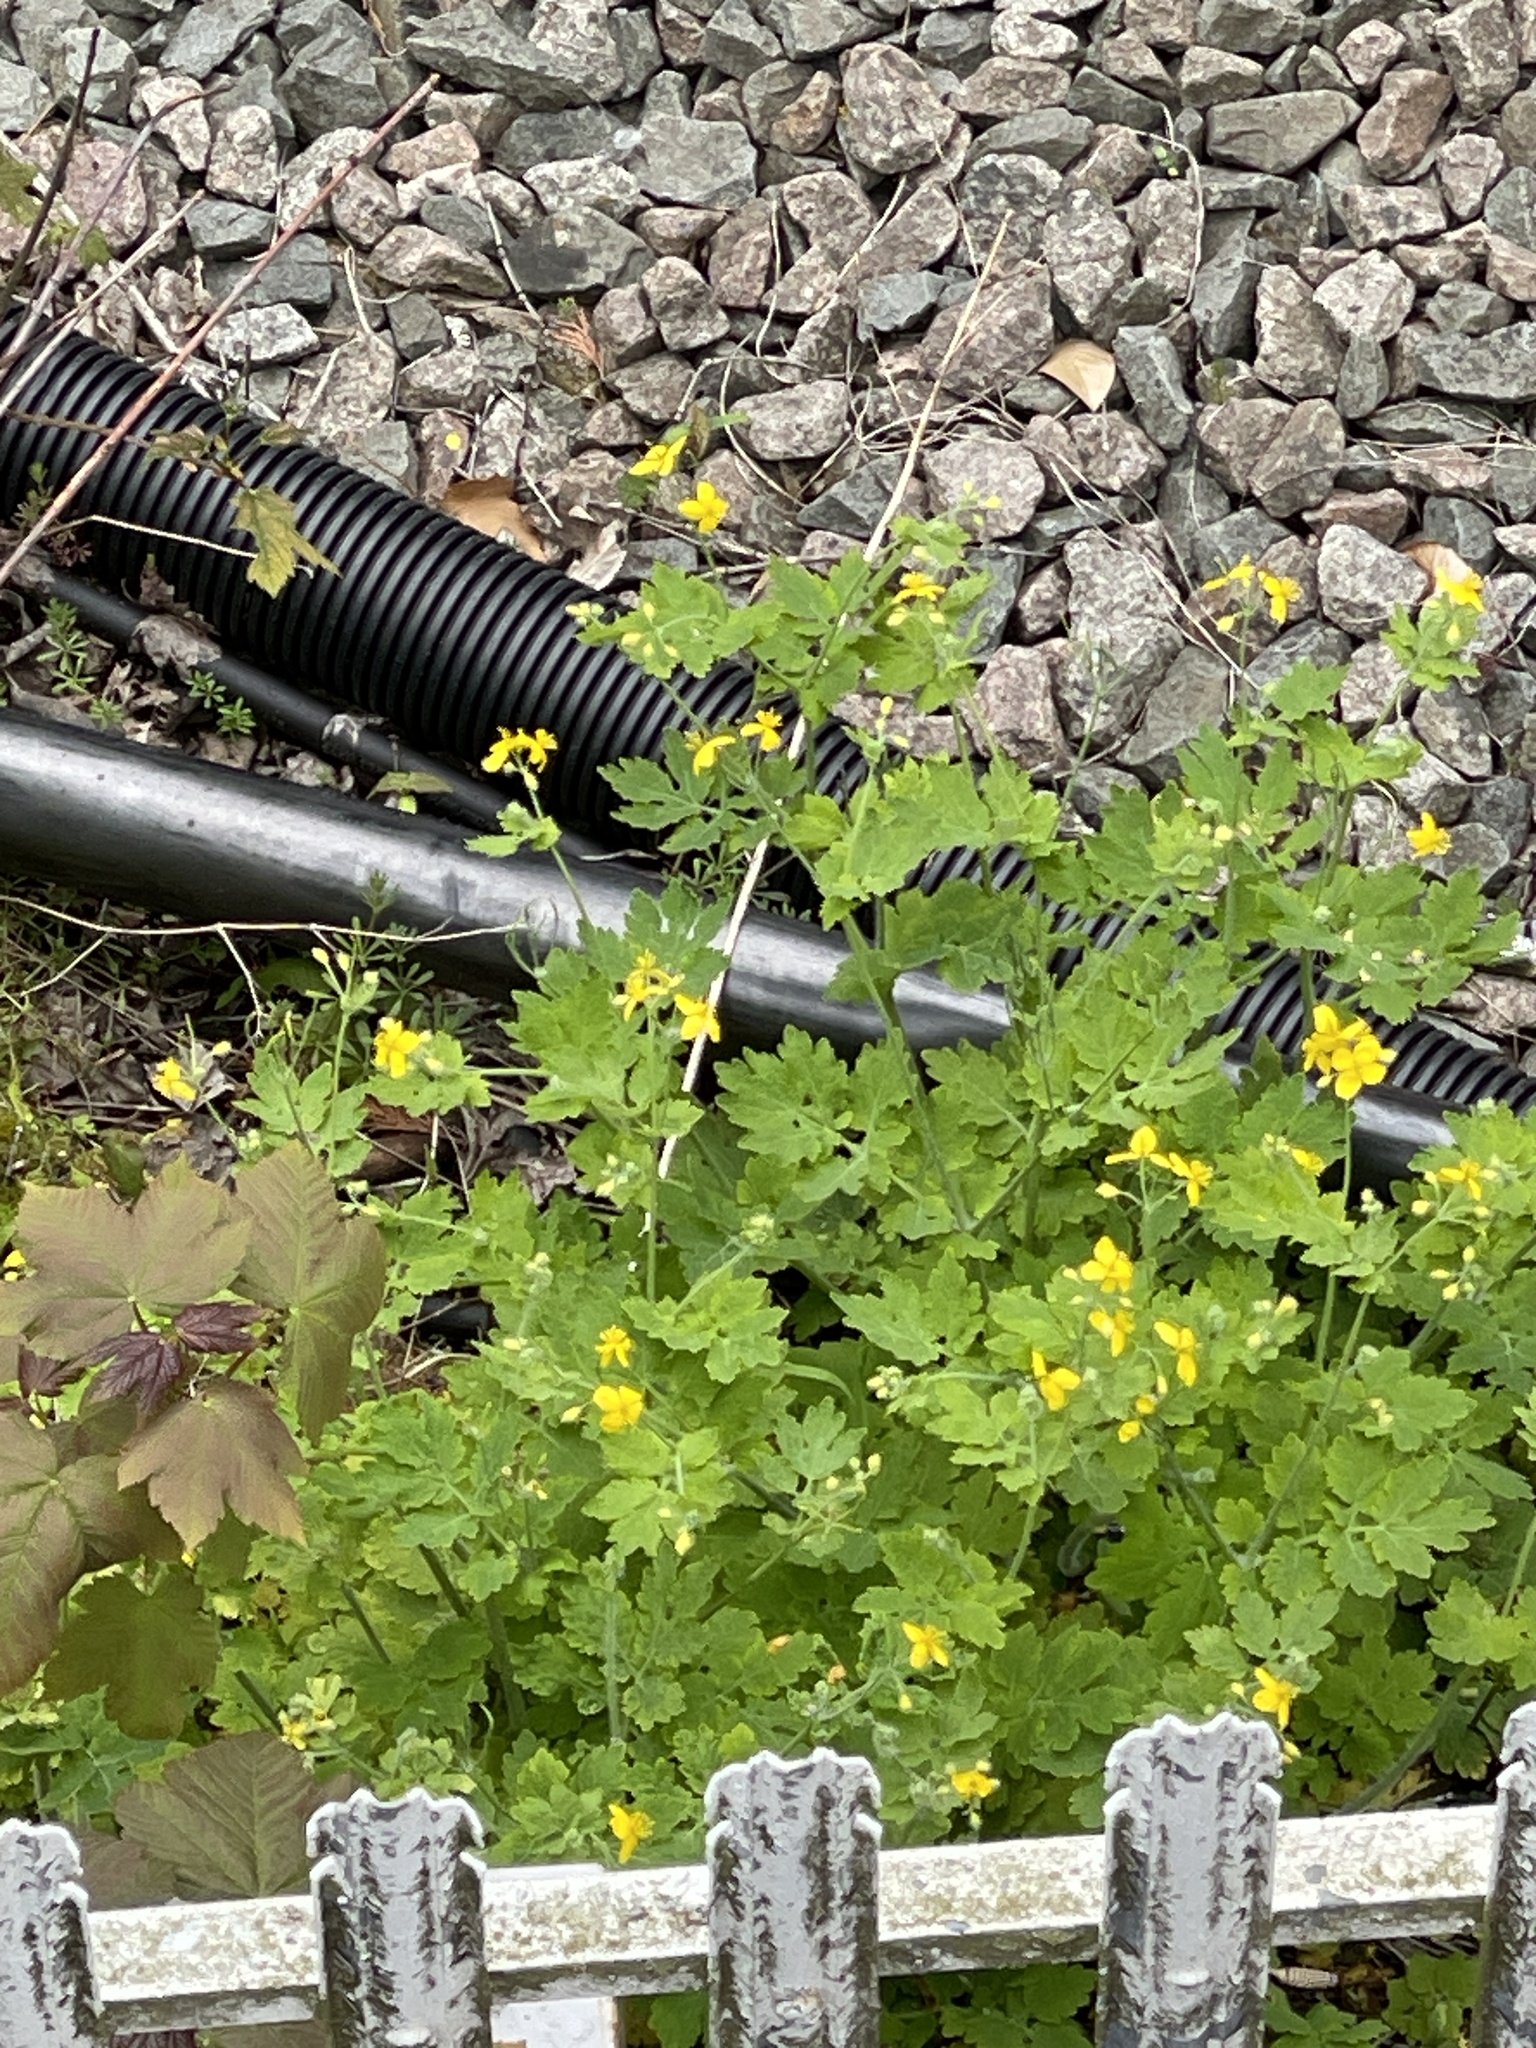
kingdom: Plantae
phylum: Tracheophyta
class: Magnoliopsida
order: Ranunculales
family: Papaveraceae
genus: Chelidonium
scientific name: Chelidonium majus
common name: Greater celandine
